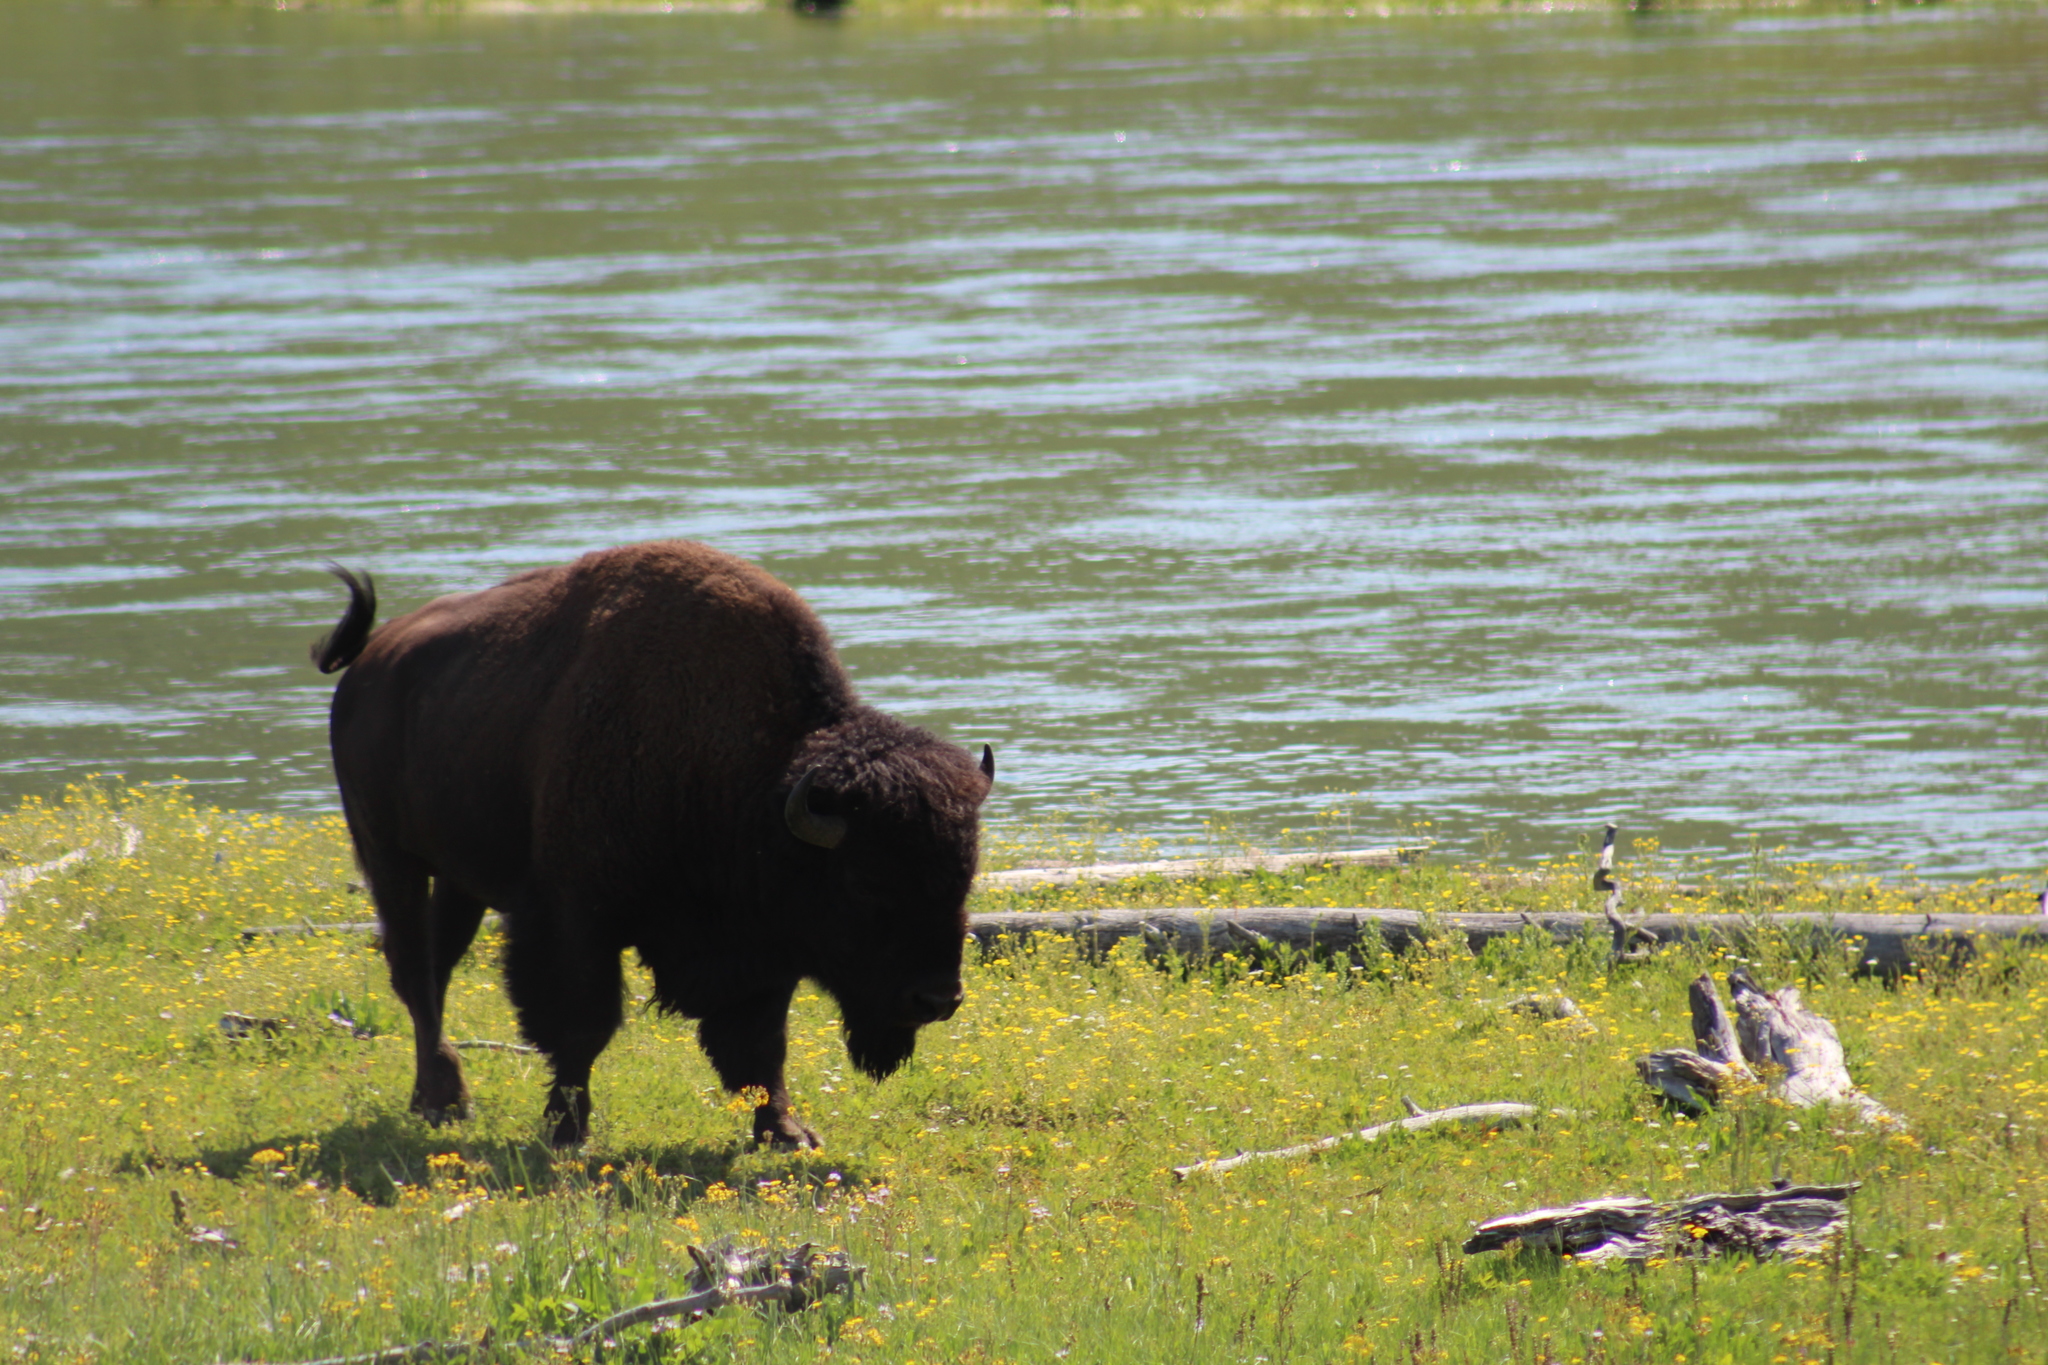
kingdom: Animalia
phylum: Chordata
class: Mammalia
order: Artiodactyla
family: Bovidae
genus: Bison
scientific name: Bison bison
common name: American bison
